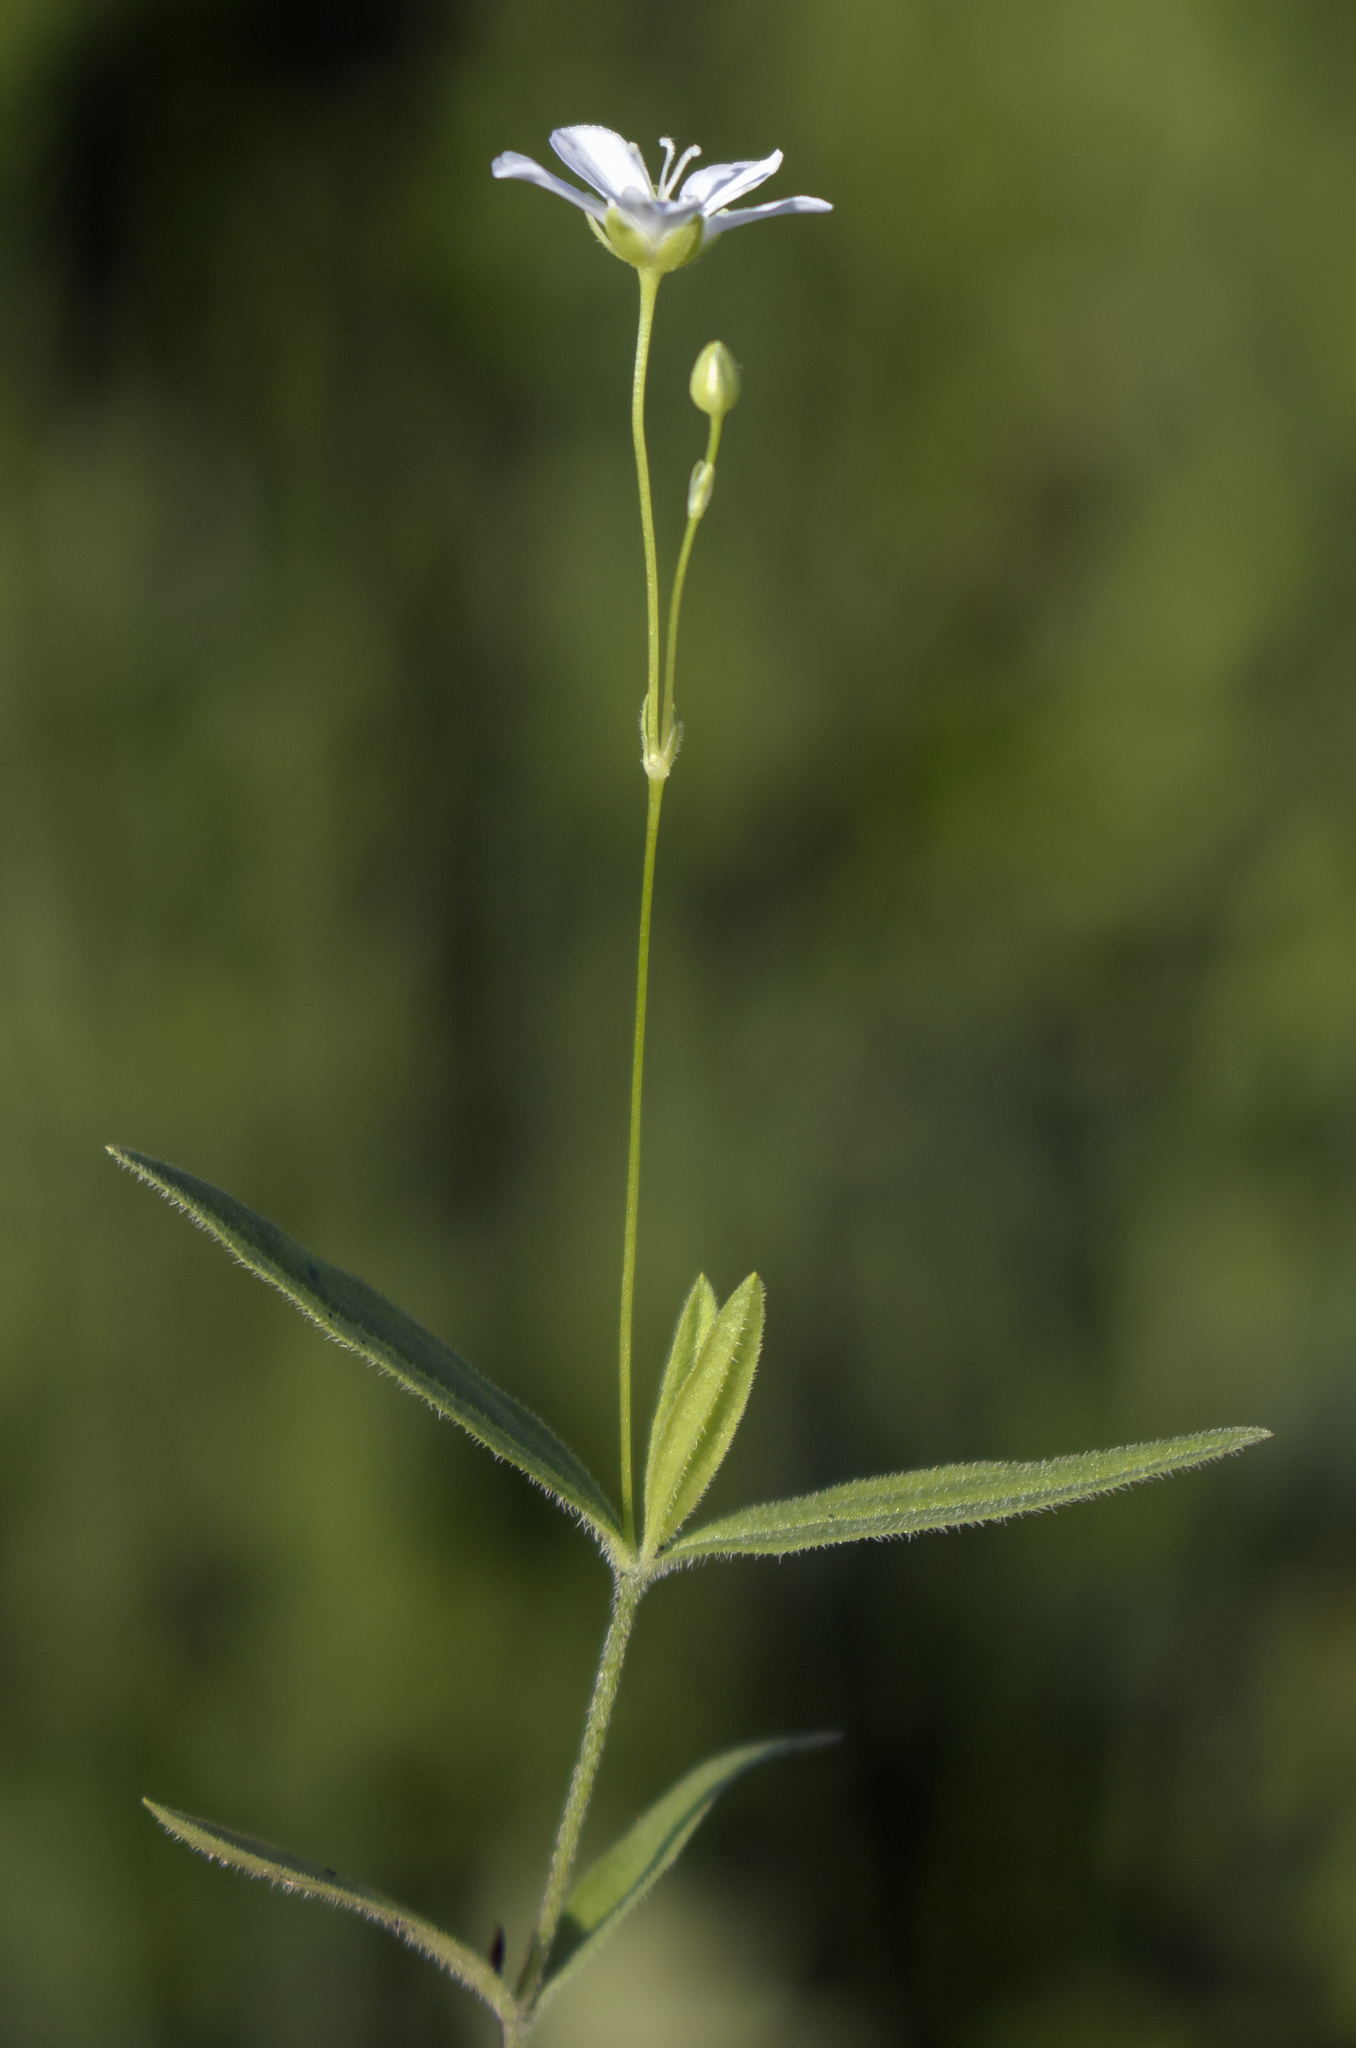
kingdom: Plantae
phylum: Tracheophyta
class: Magnoliopsida
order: Caryophyllales
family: Caryophyllaceae
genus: Moehringia
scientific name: Moehringia lateriflora
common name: Blunt-leaved sandwort
